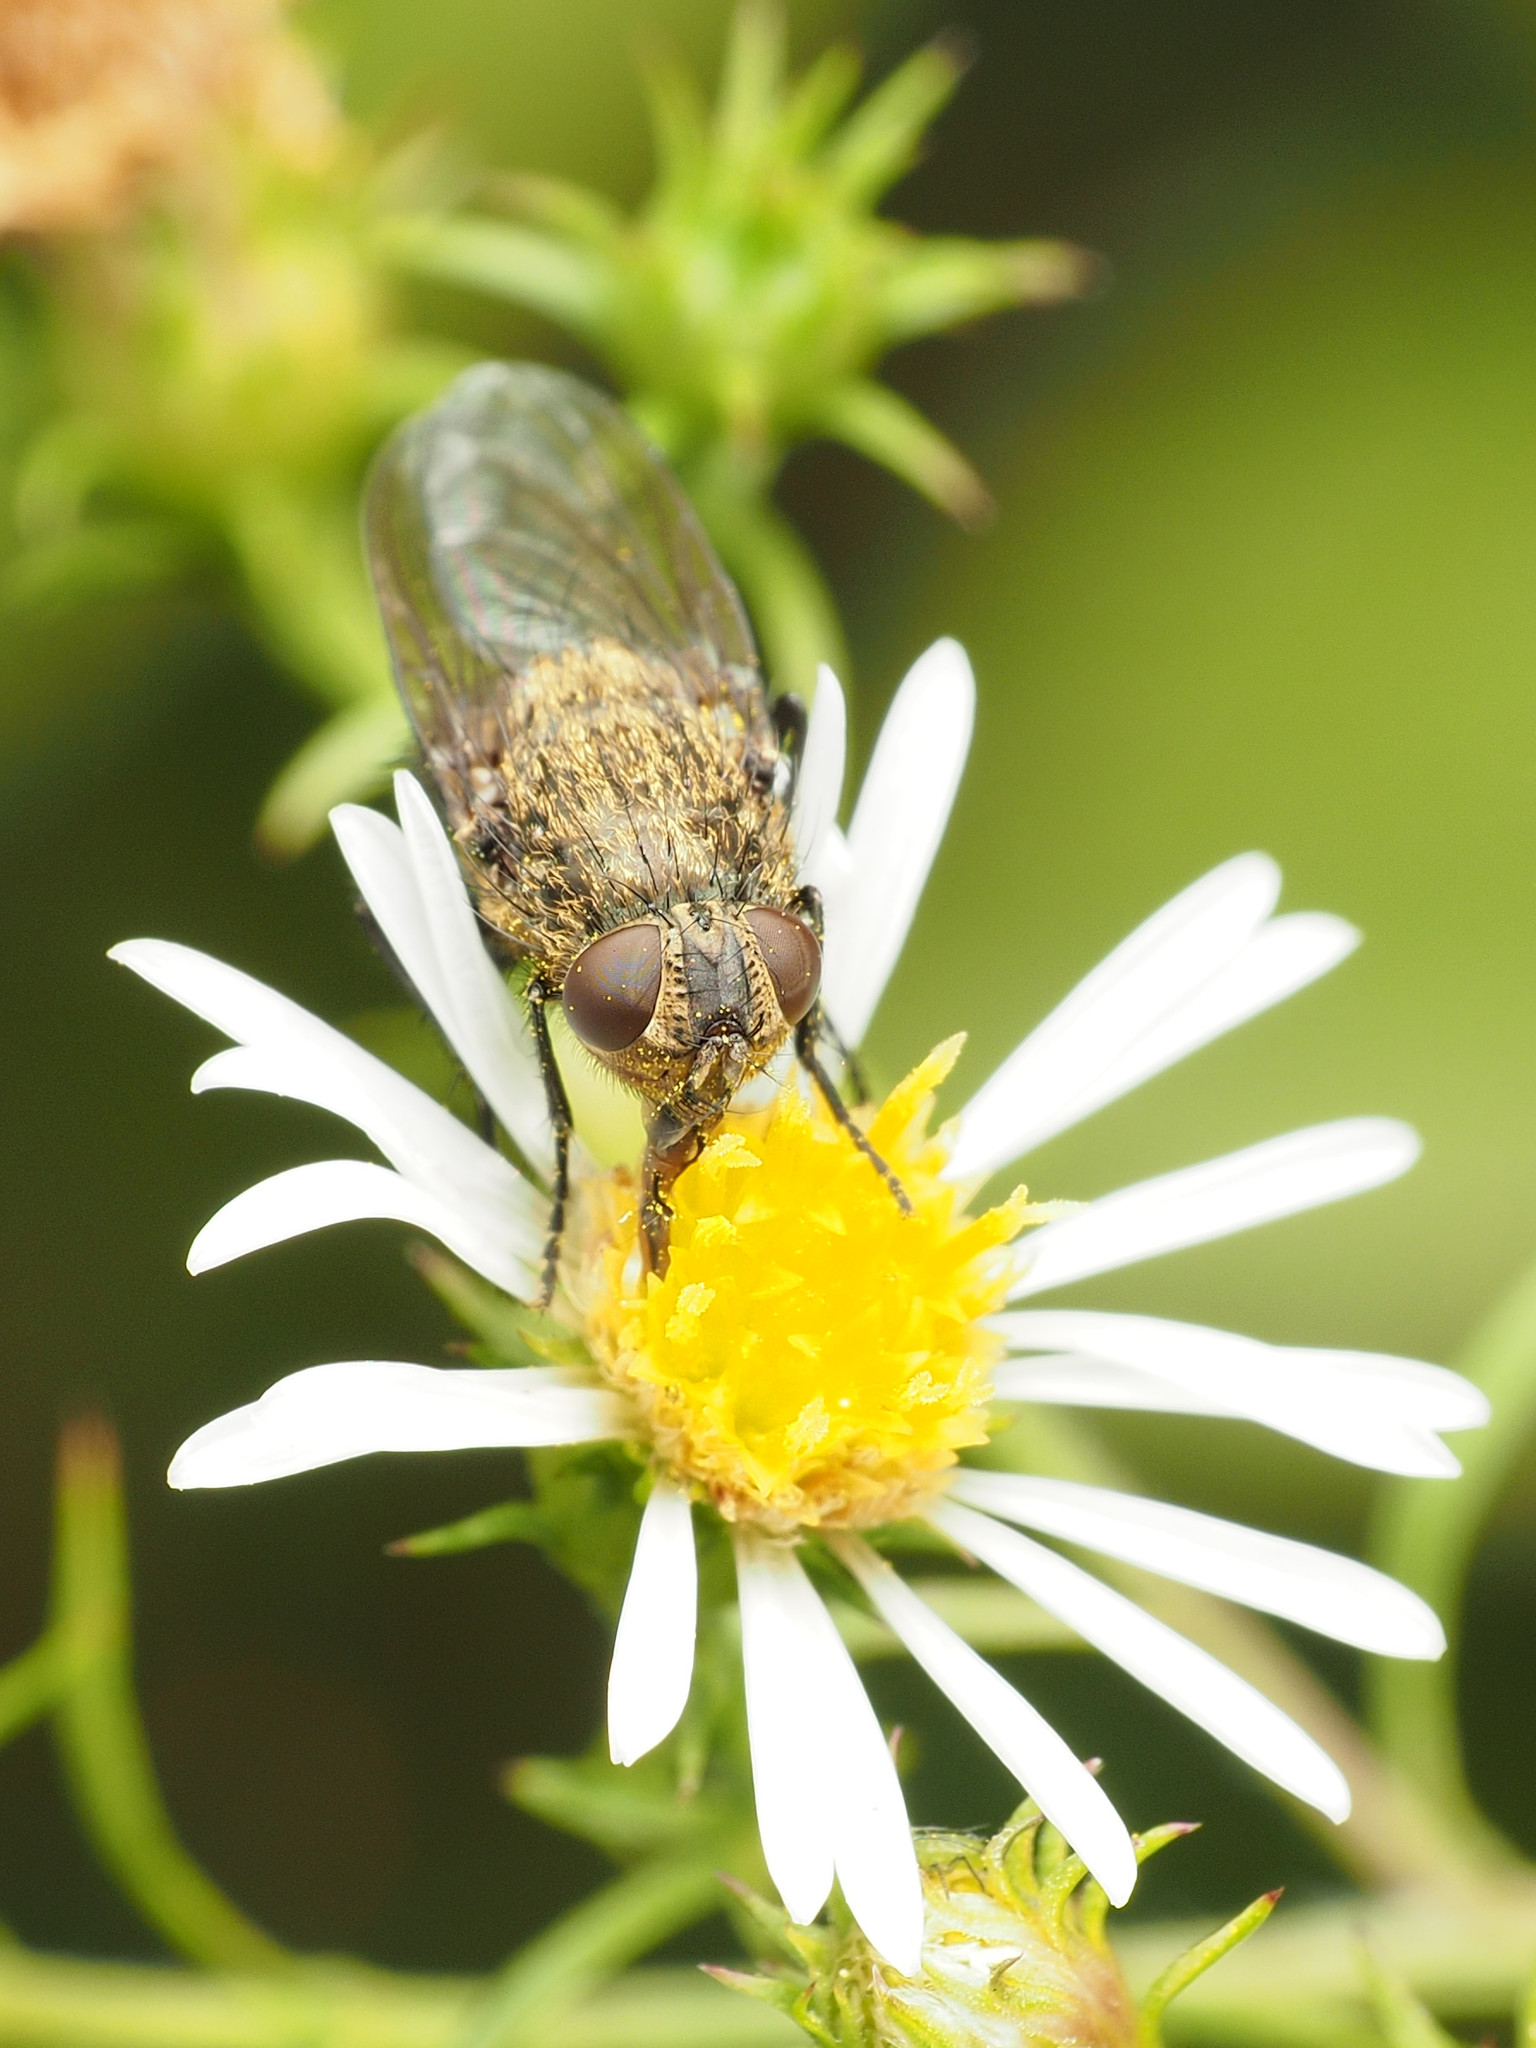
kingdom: Animalia
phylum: Arthropoda
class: Insecta
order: Diptera
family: Polleniidae
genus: Pollenia
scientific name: Pollenia
